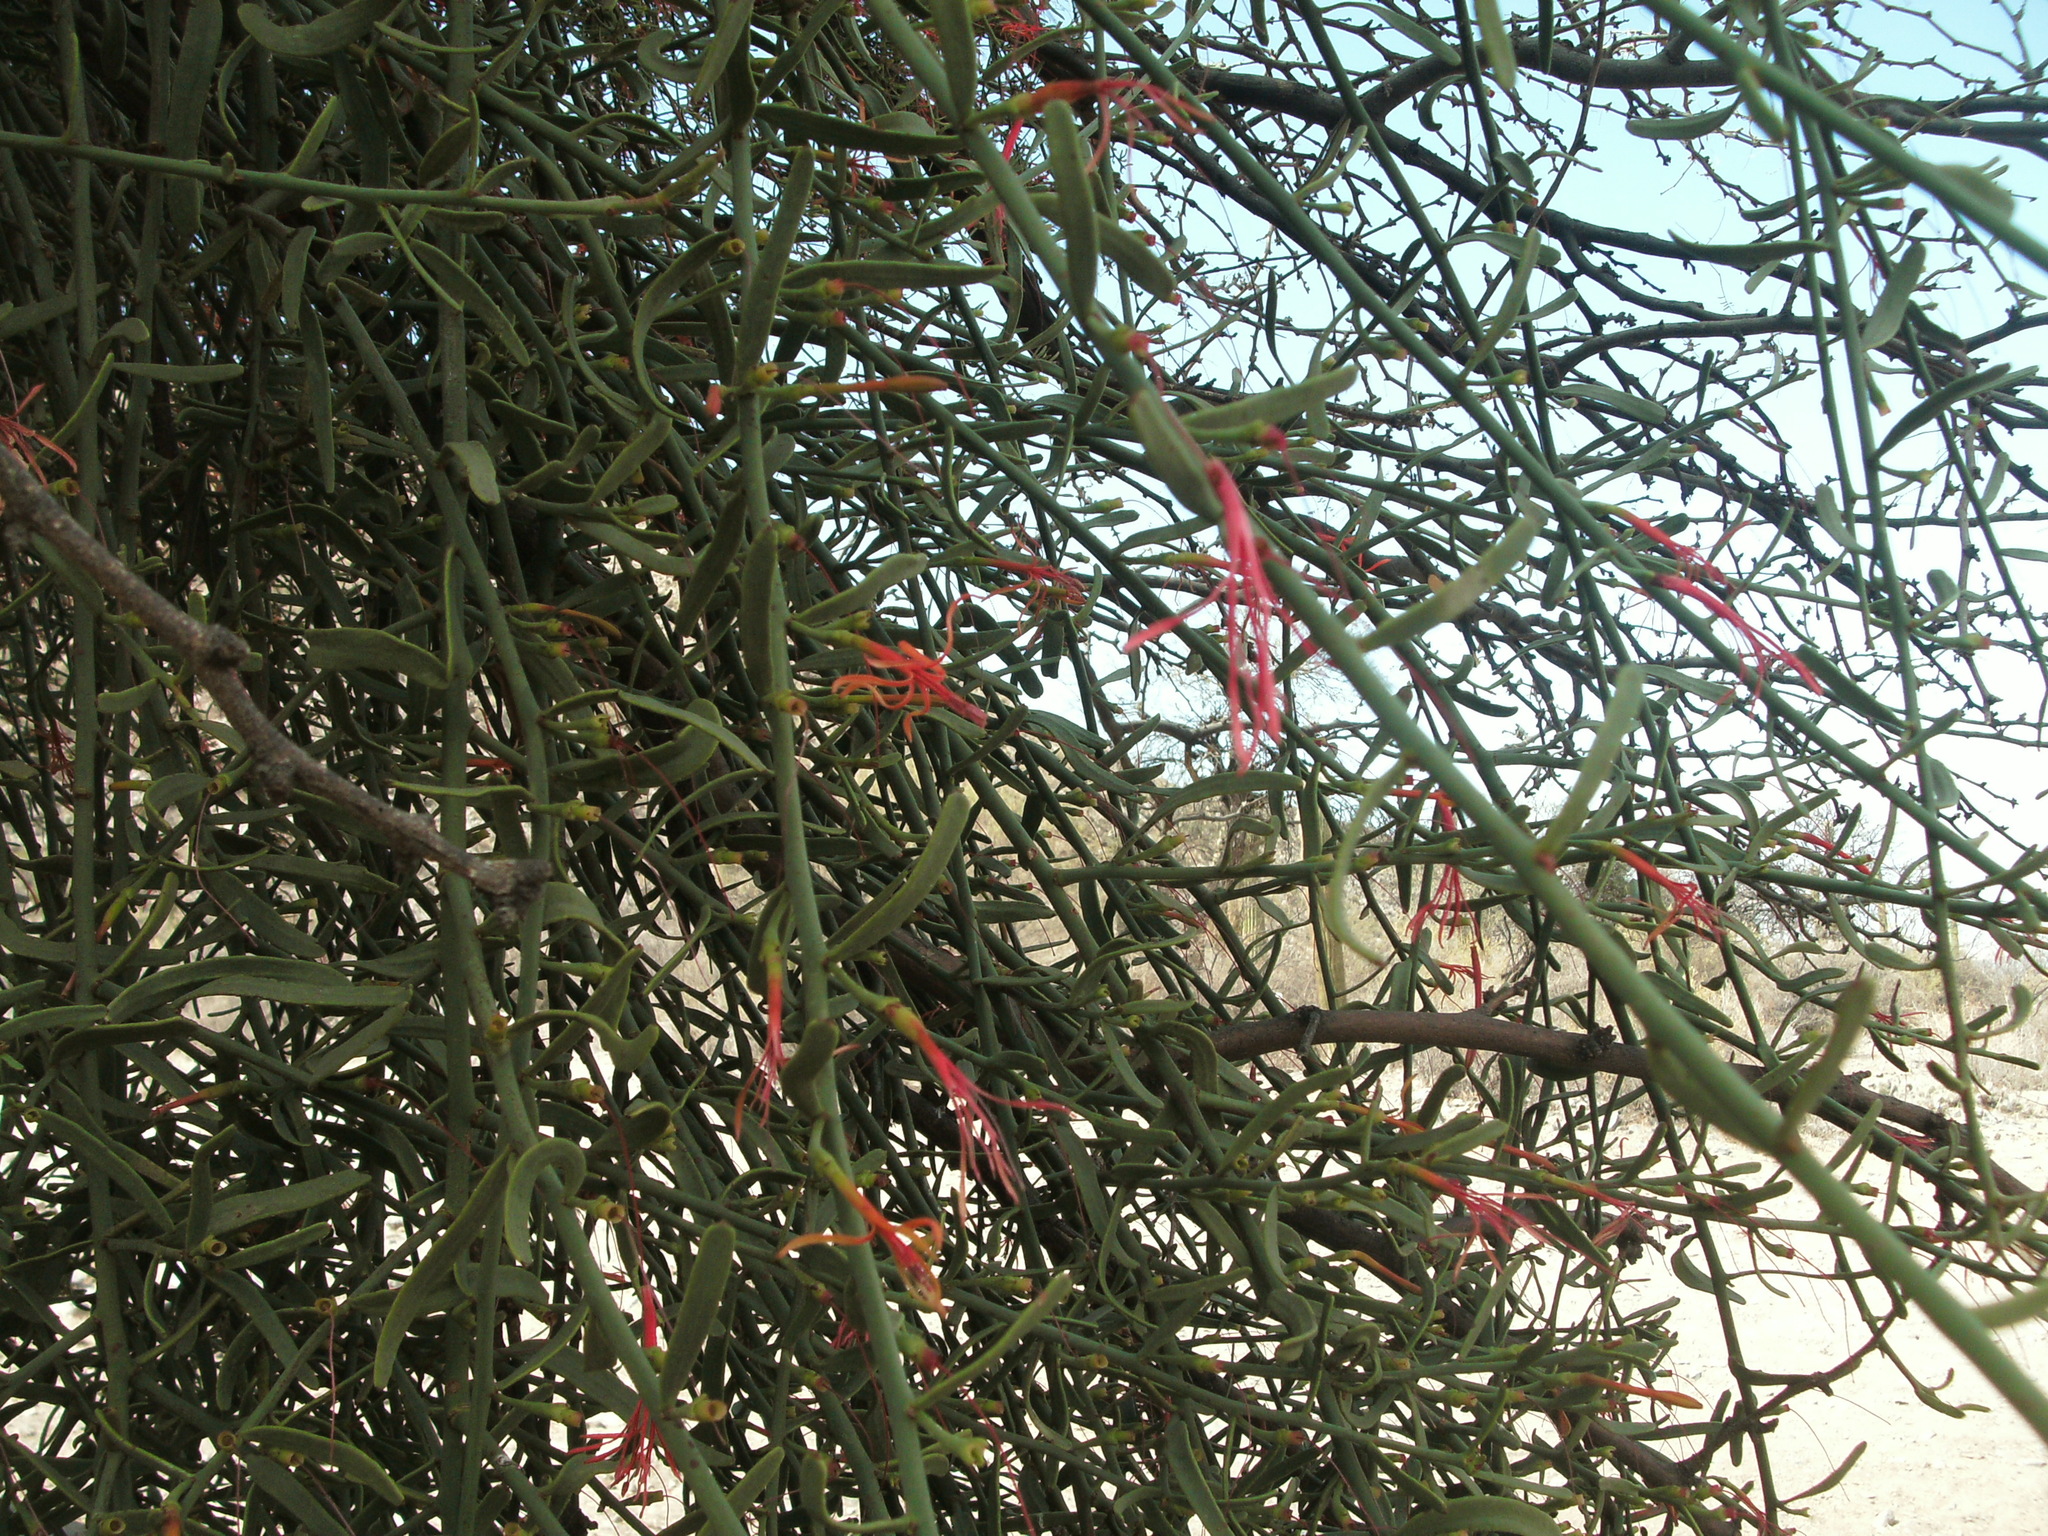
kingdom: Plantae
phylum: Tracheophyta
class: Magnoliopsida
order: Santalales
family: Loranthaceae
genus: Ligaria
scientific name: Ligaria cuneifolia
